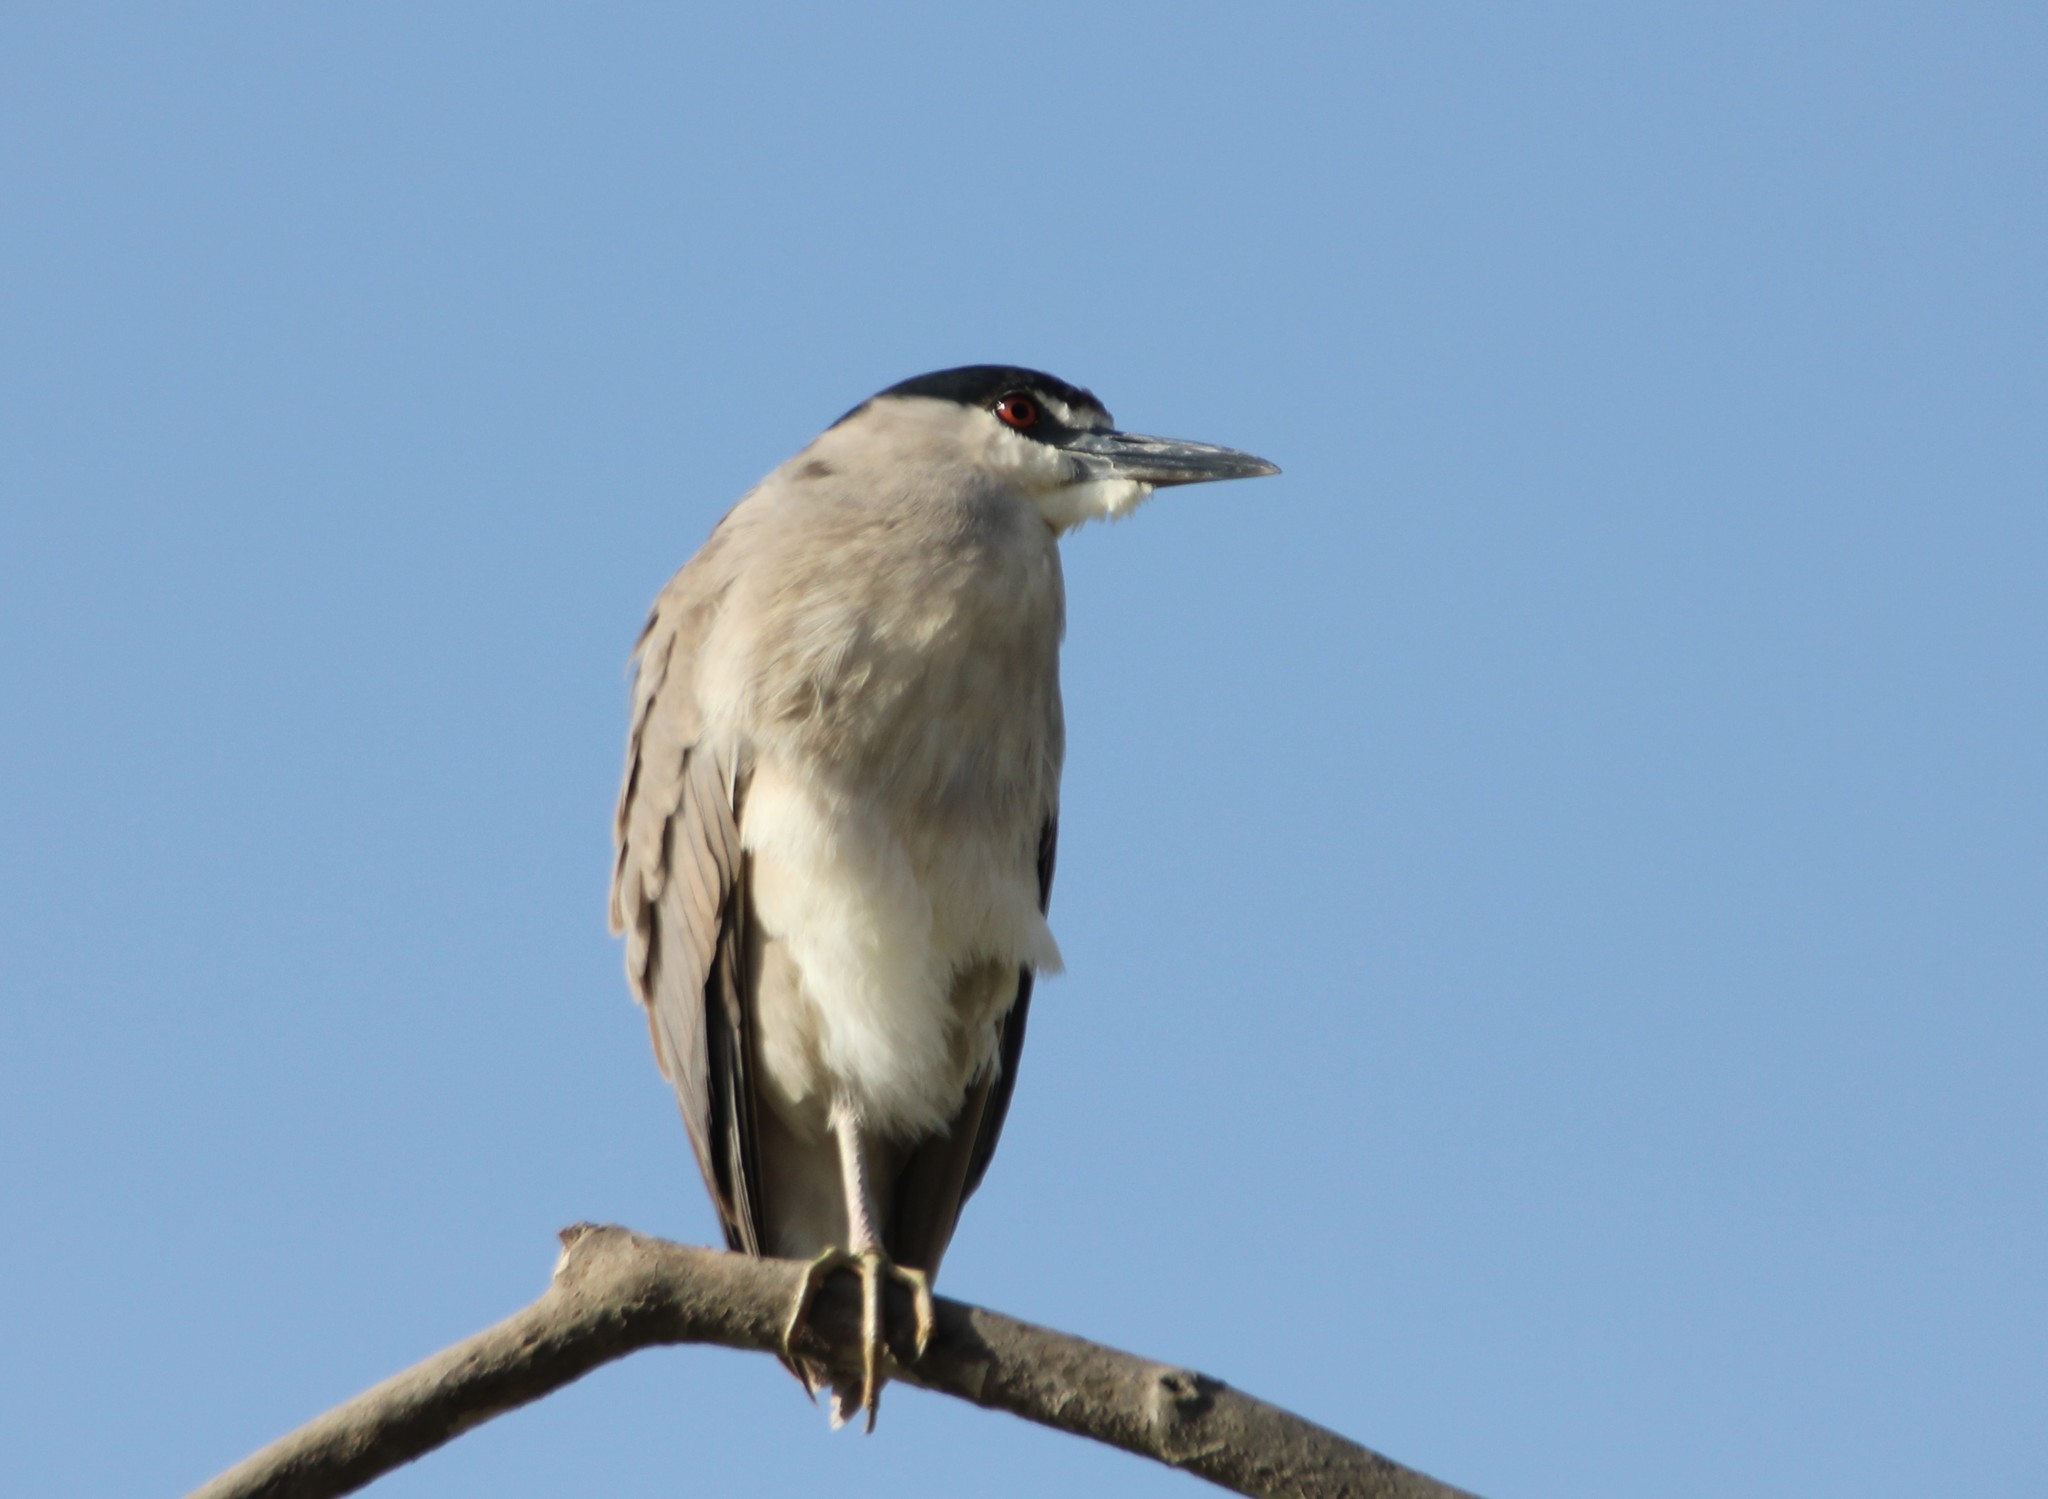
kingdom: Animalia
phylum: Chordata
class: Aves
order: Pelecaniformes
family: Ardeidae
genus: Nycticorax
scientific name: Nycticorax nycticorax
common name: Black-crowned night heron
